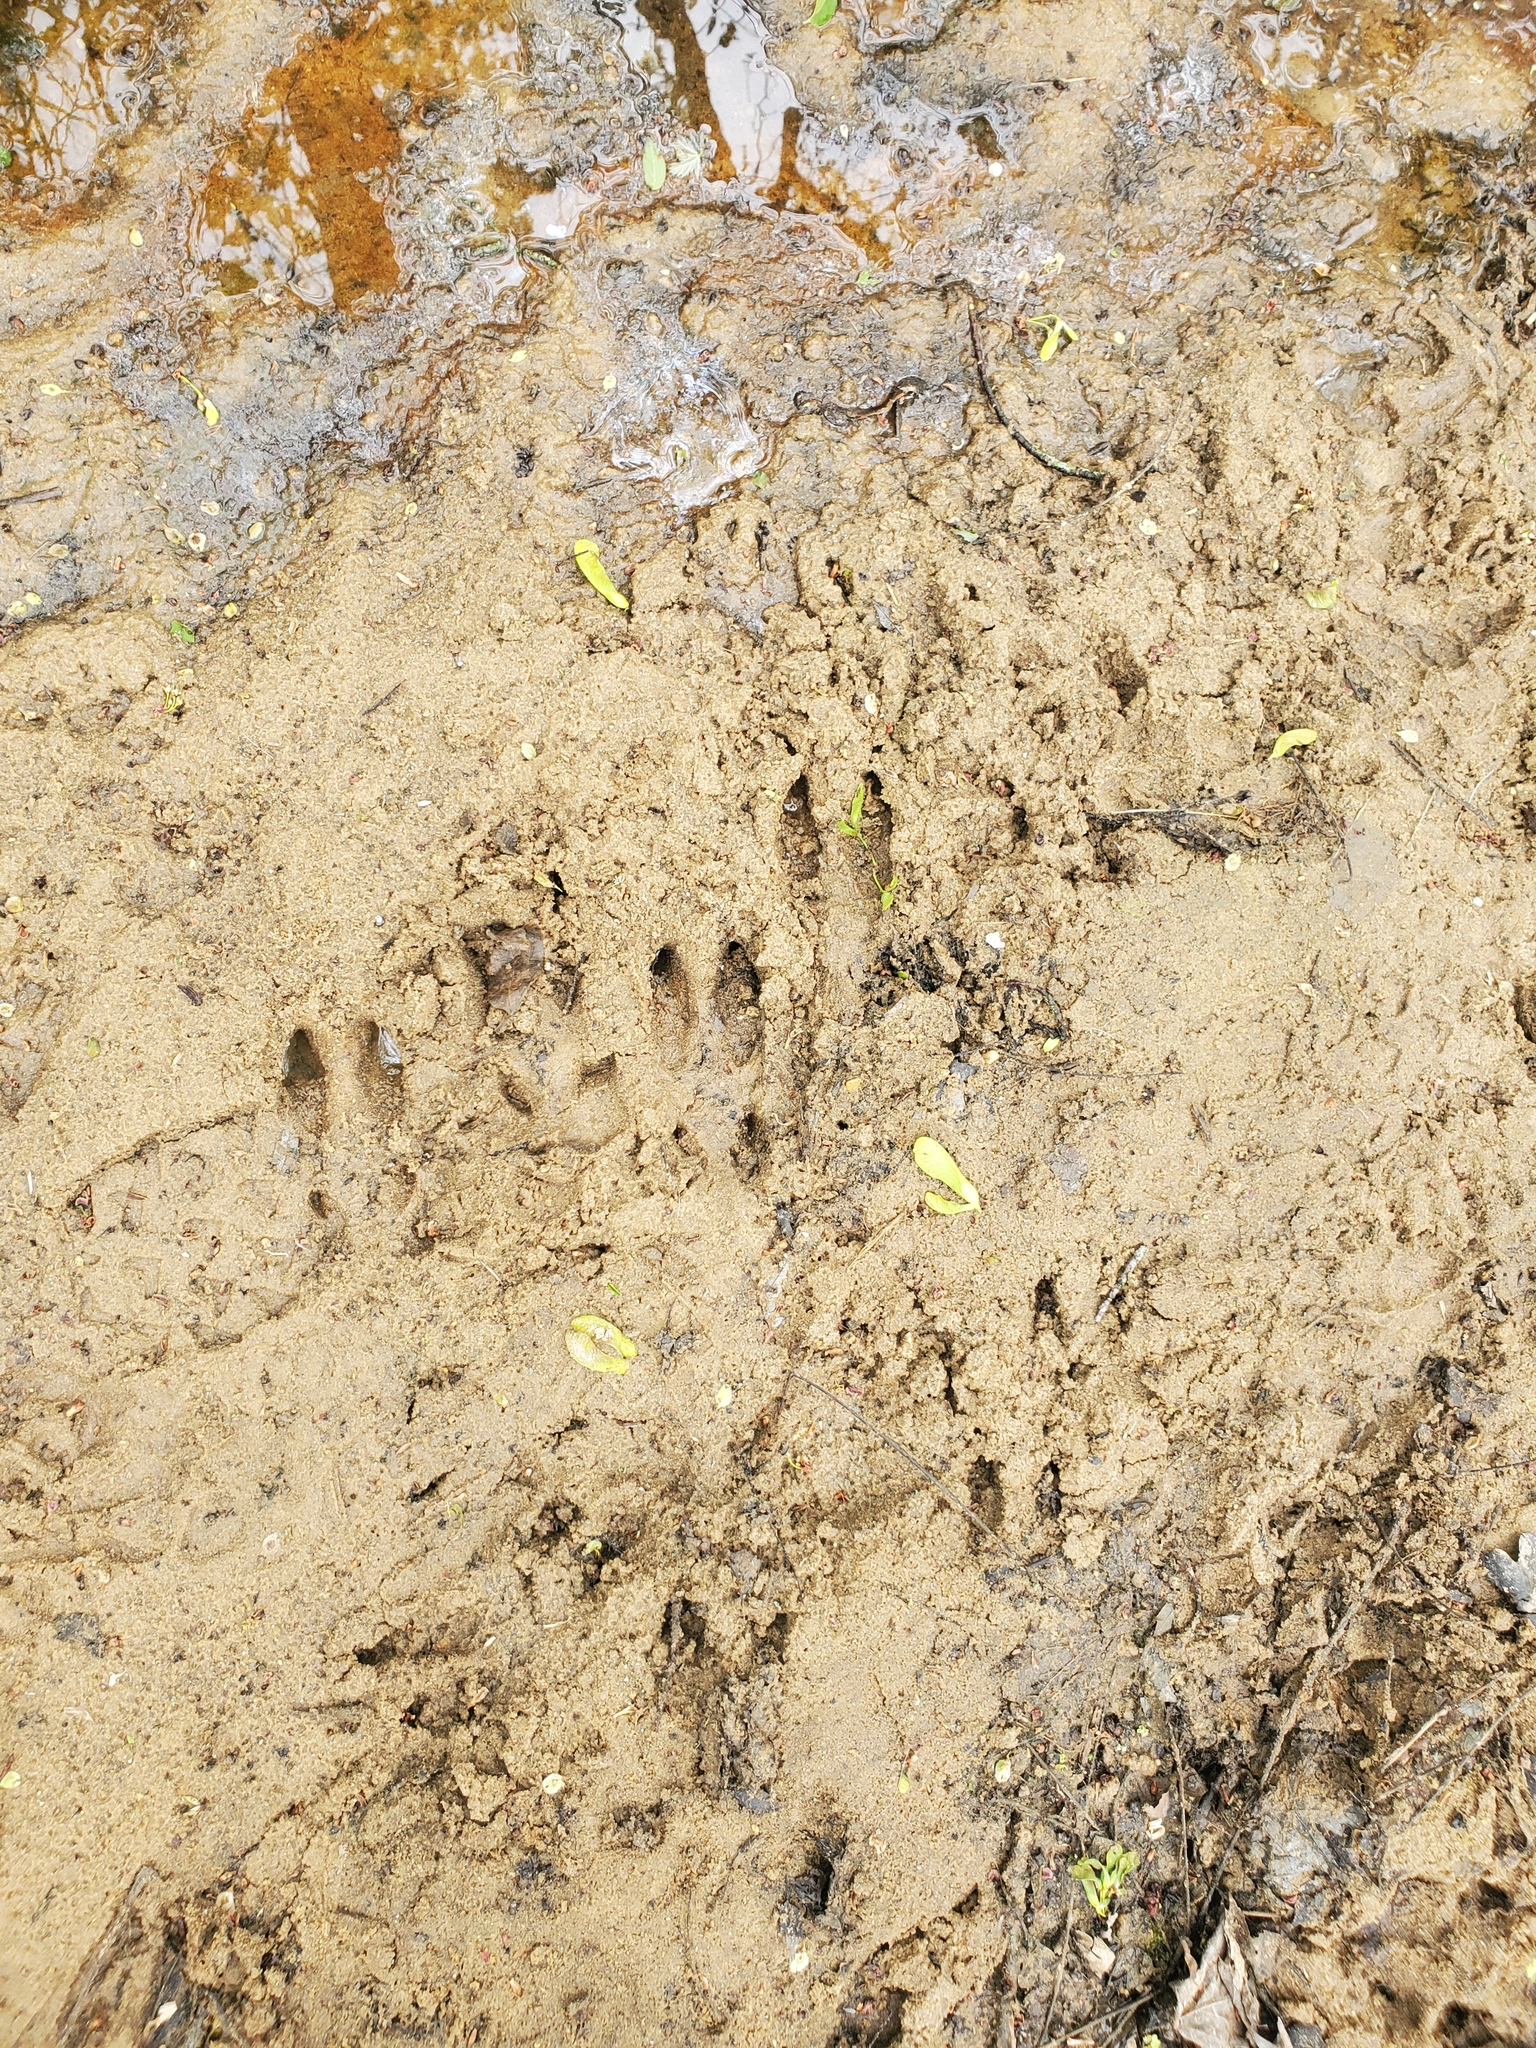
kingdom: Animalia
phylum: Chordata
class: Mammalia
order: Artiodactyla
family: Cervidae
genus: Odocoileus
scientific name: Odocoileus virginianus
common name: White-tailed deer
